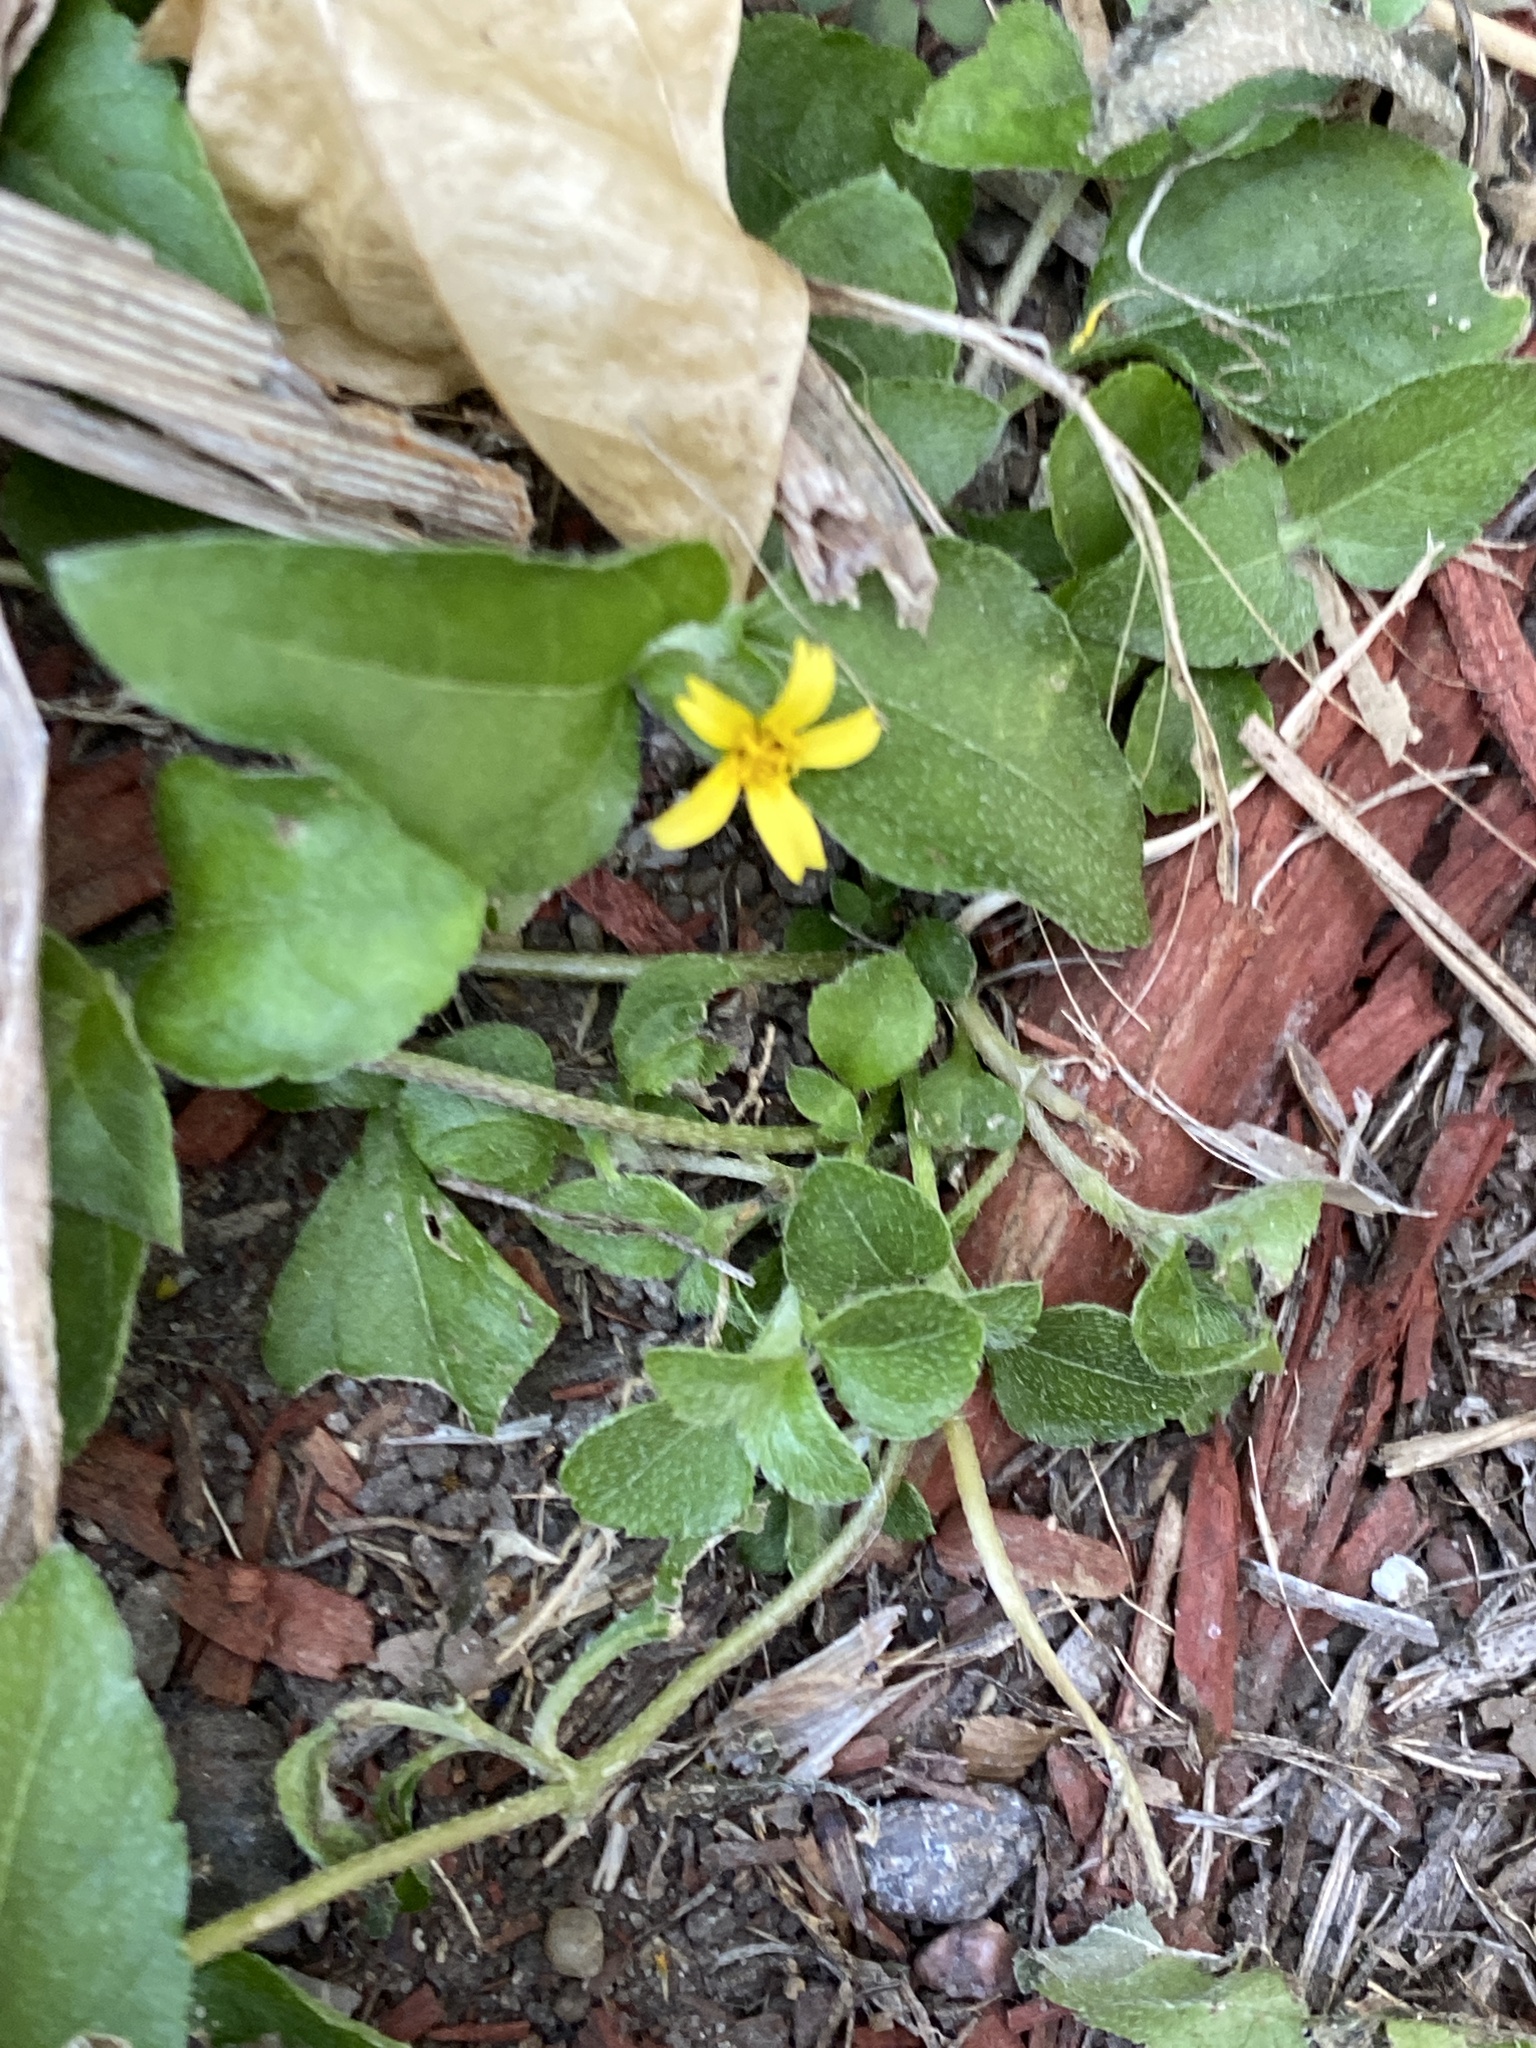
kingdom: Plantae
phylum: Tracheophyta
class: Magnoliopsida
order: Asterales
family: Asteraceae
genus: Calyptocarpus
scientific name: Calyptocarpus vialis
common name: Straggler daisy
